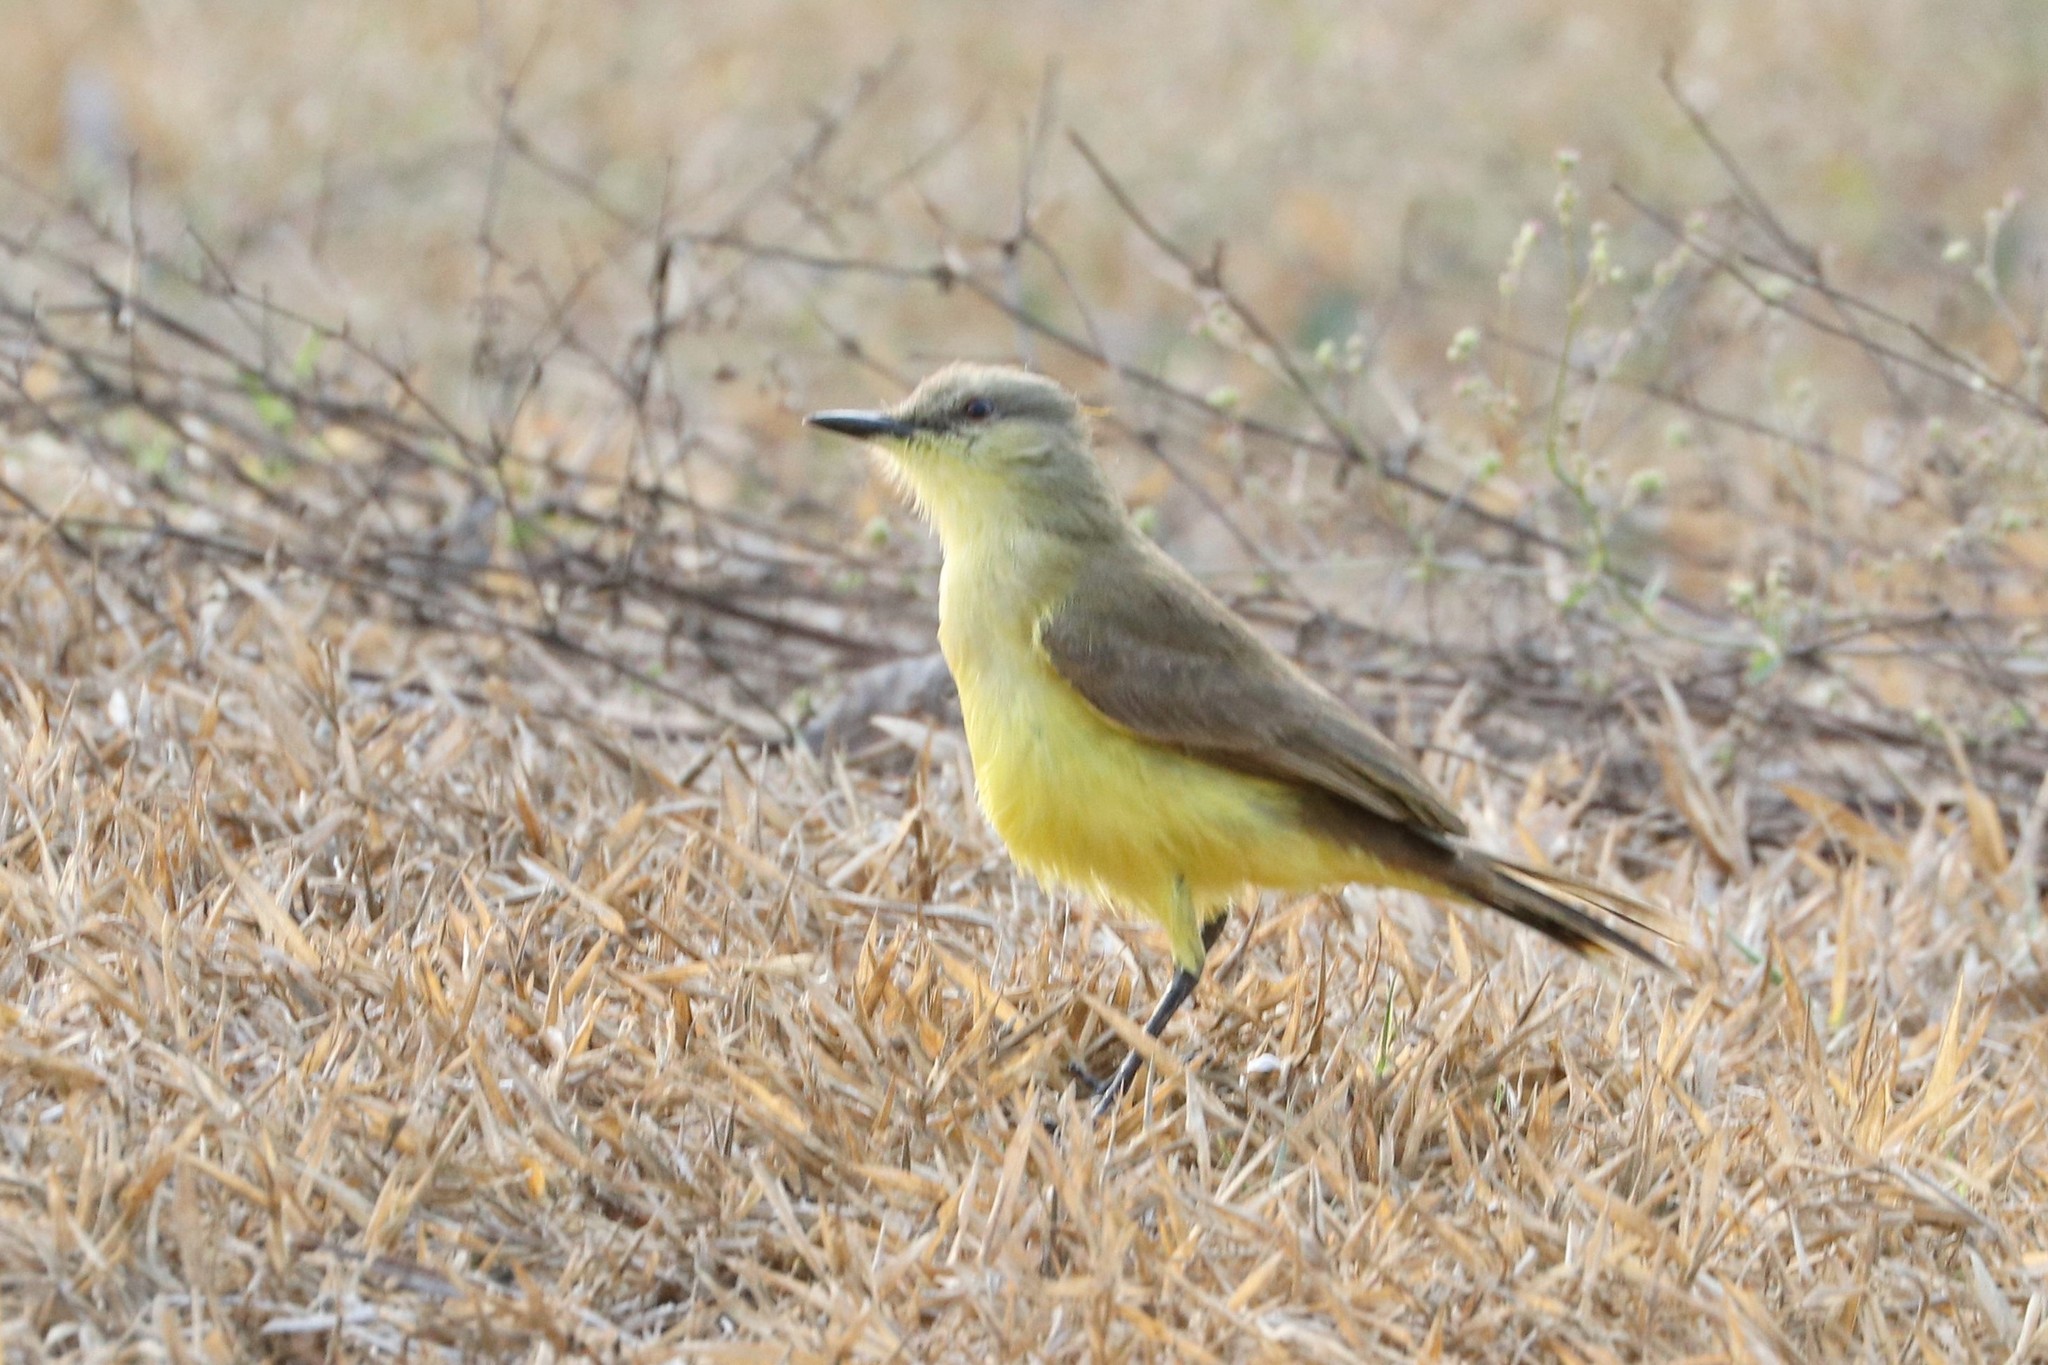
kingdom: Animalia
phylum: Chordata
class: Aves
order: Passeriformes
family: Tyrannidae
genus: Machetornis
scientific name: Machetornis rixosa
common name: Cattle tyrant
